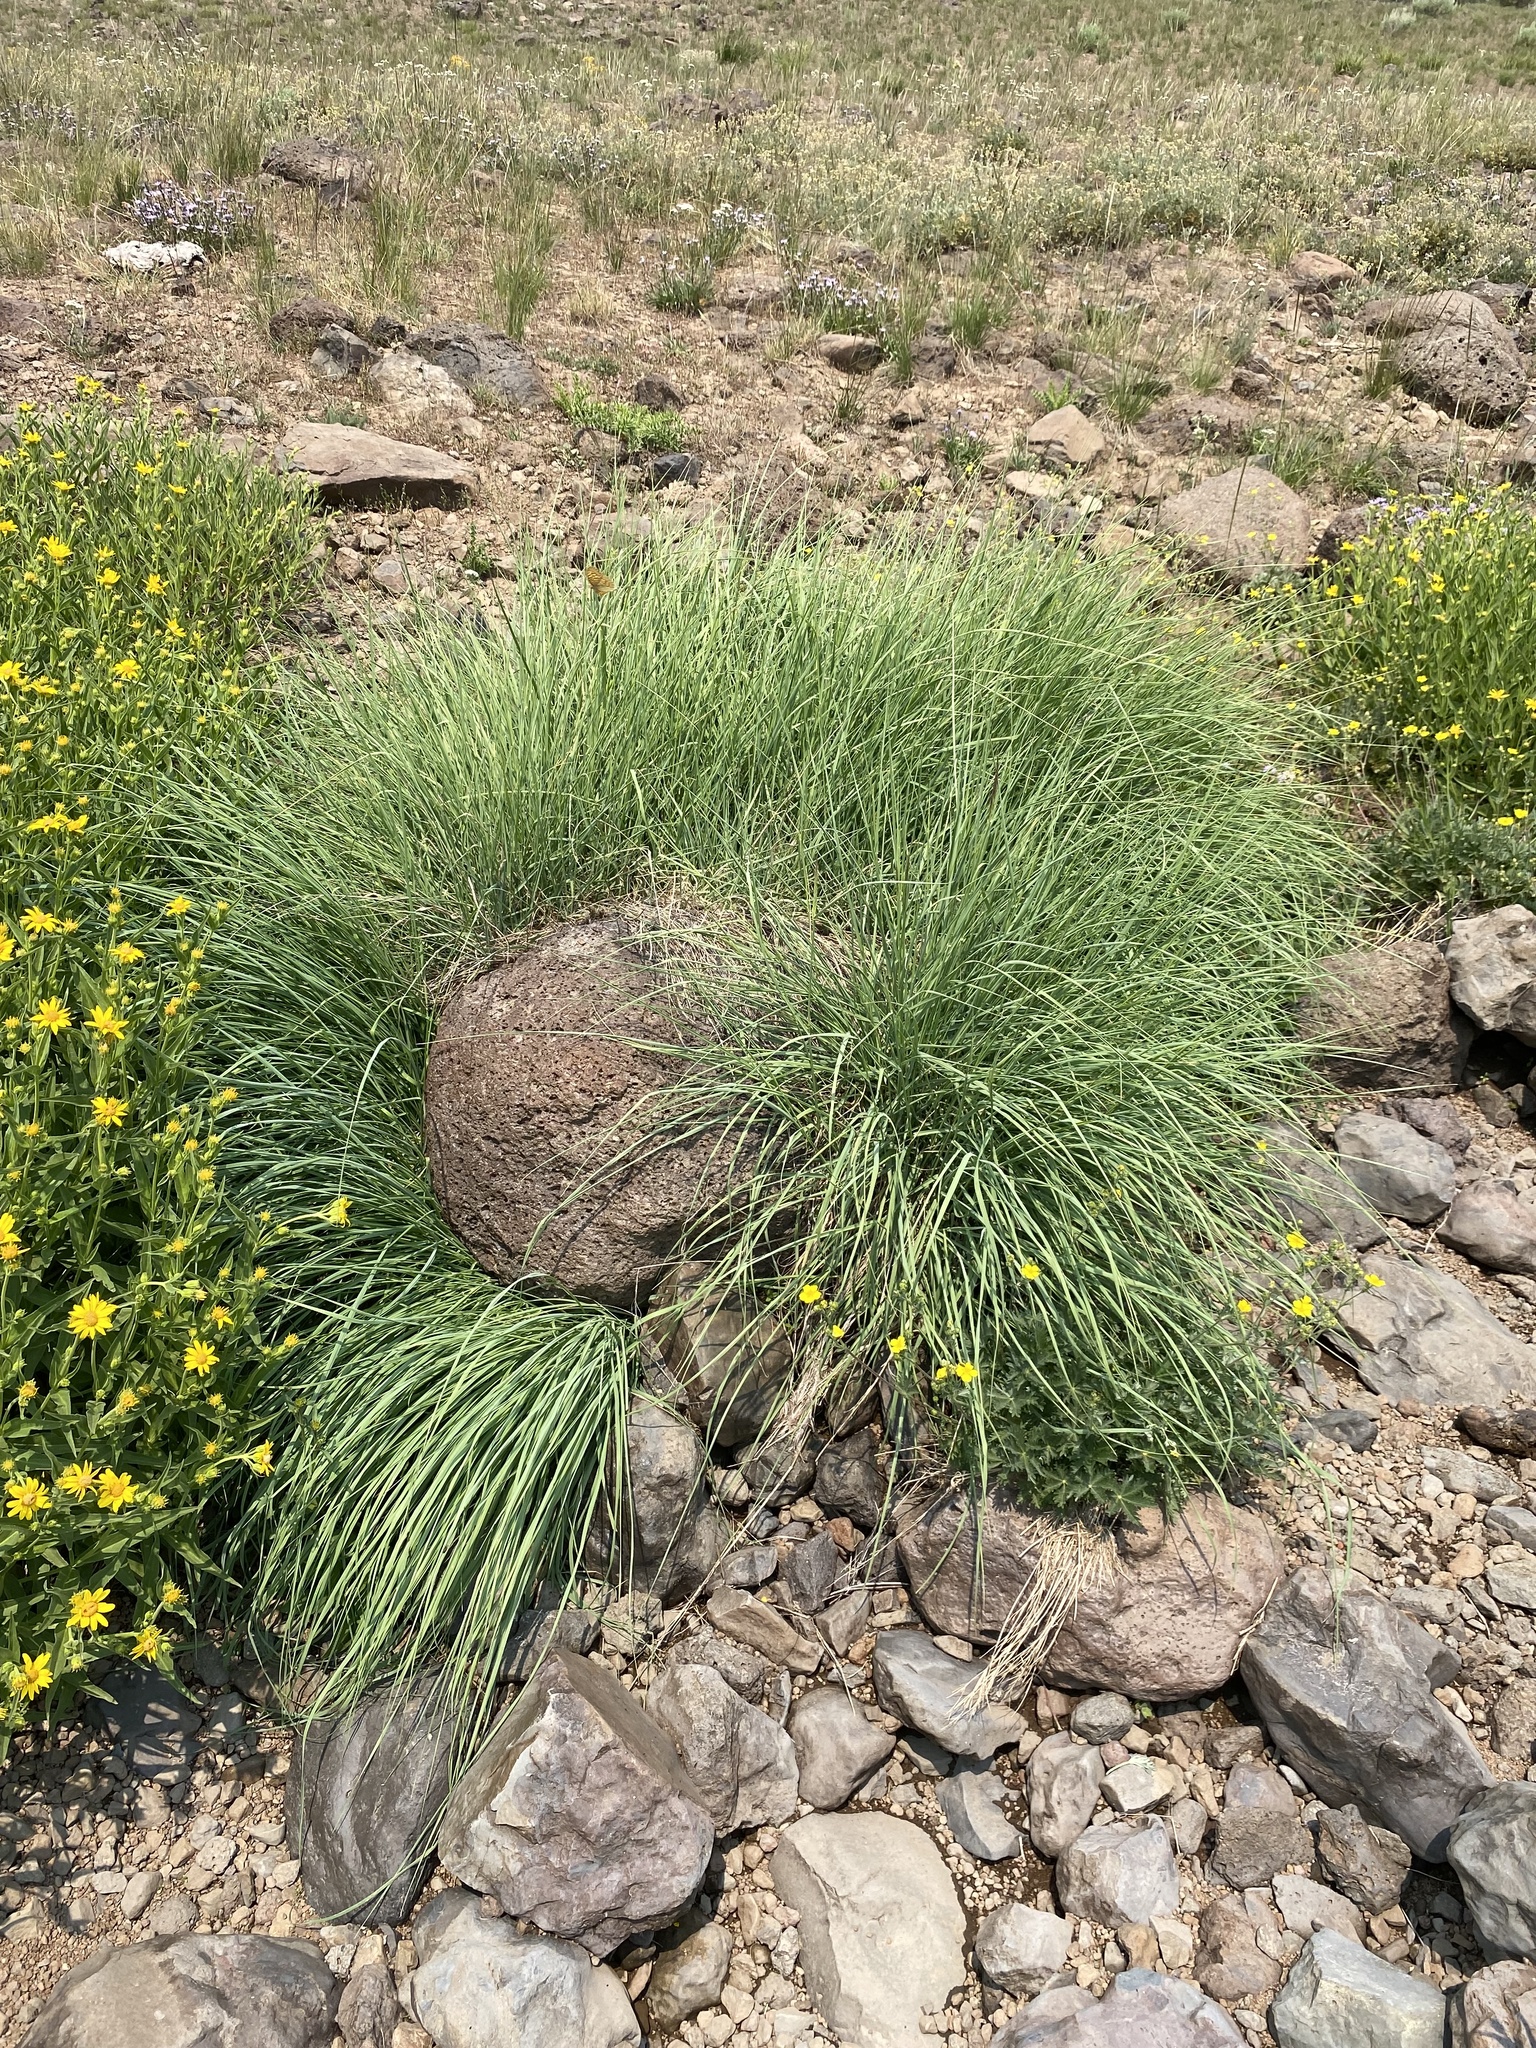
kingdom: Plantae
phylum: Tracheophyta
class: Liliopsida
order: Poales
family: Poaceae
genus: Calamagrostis
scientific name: Calamagrostis utsutsuensis
